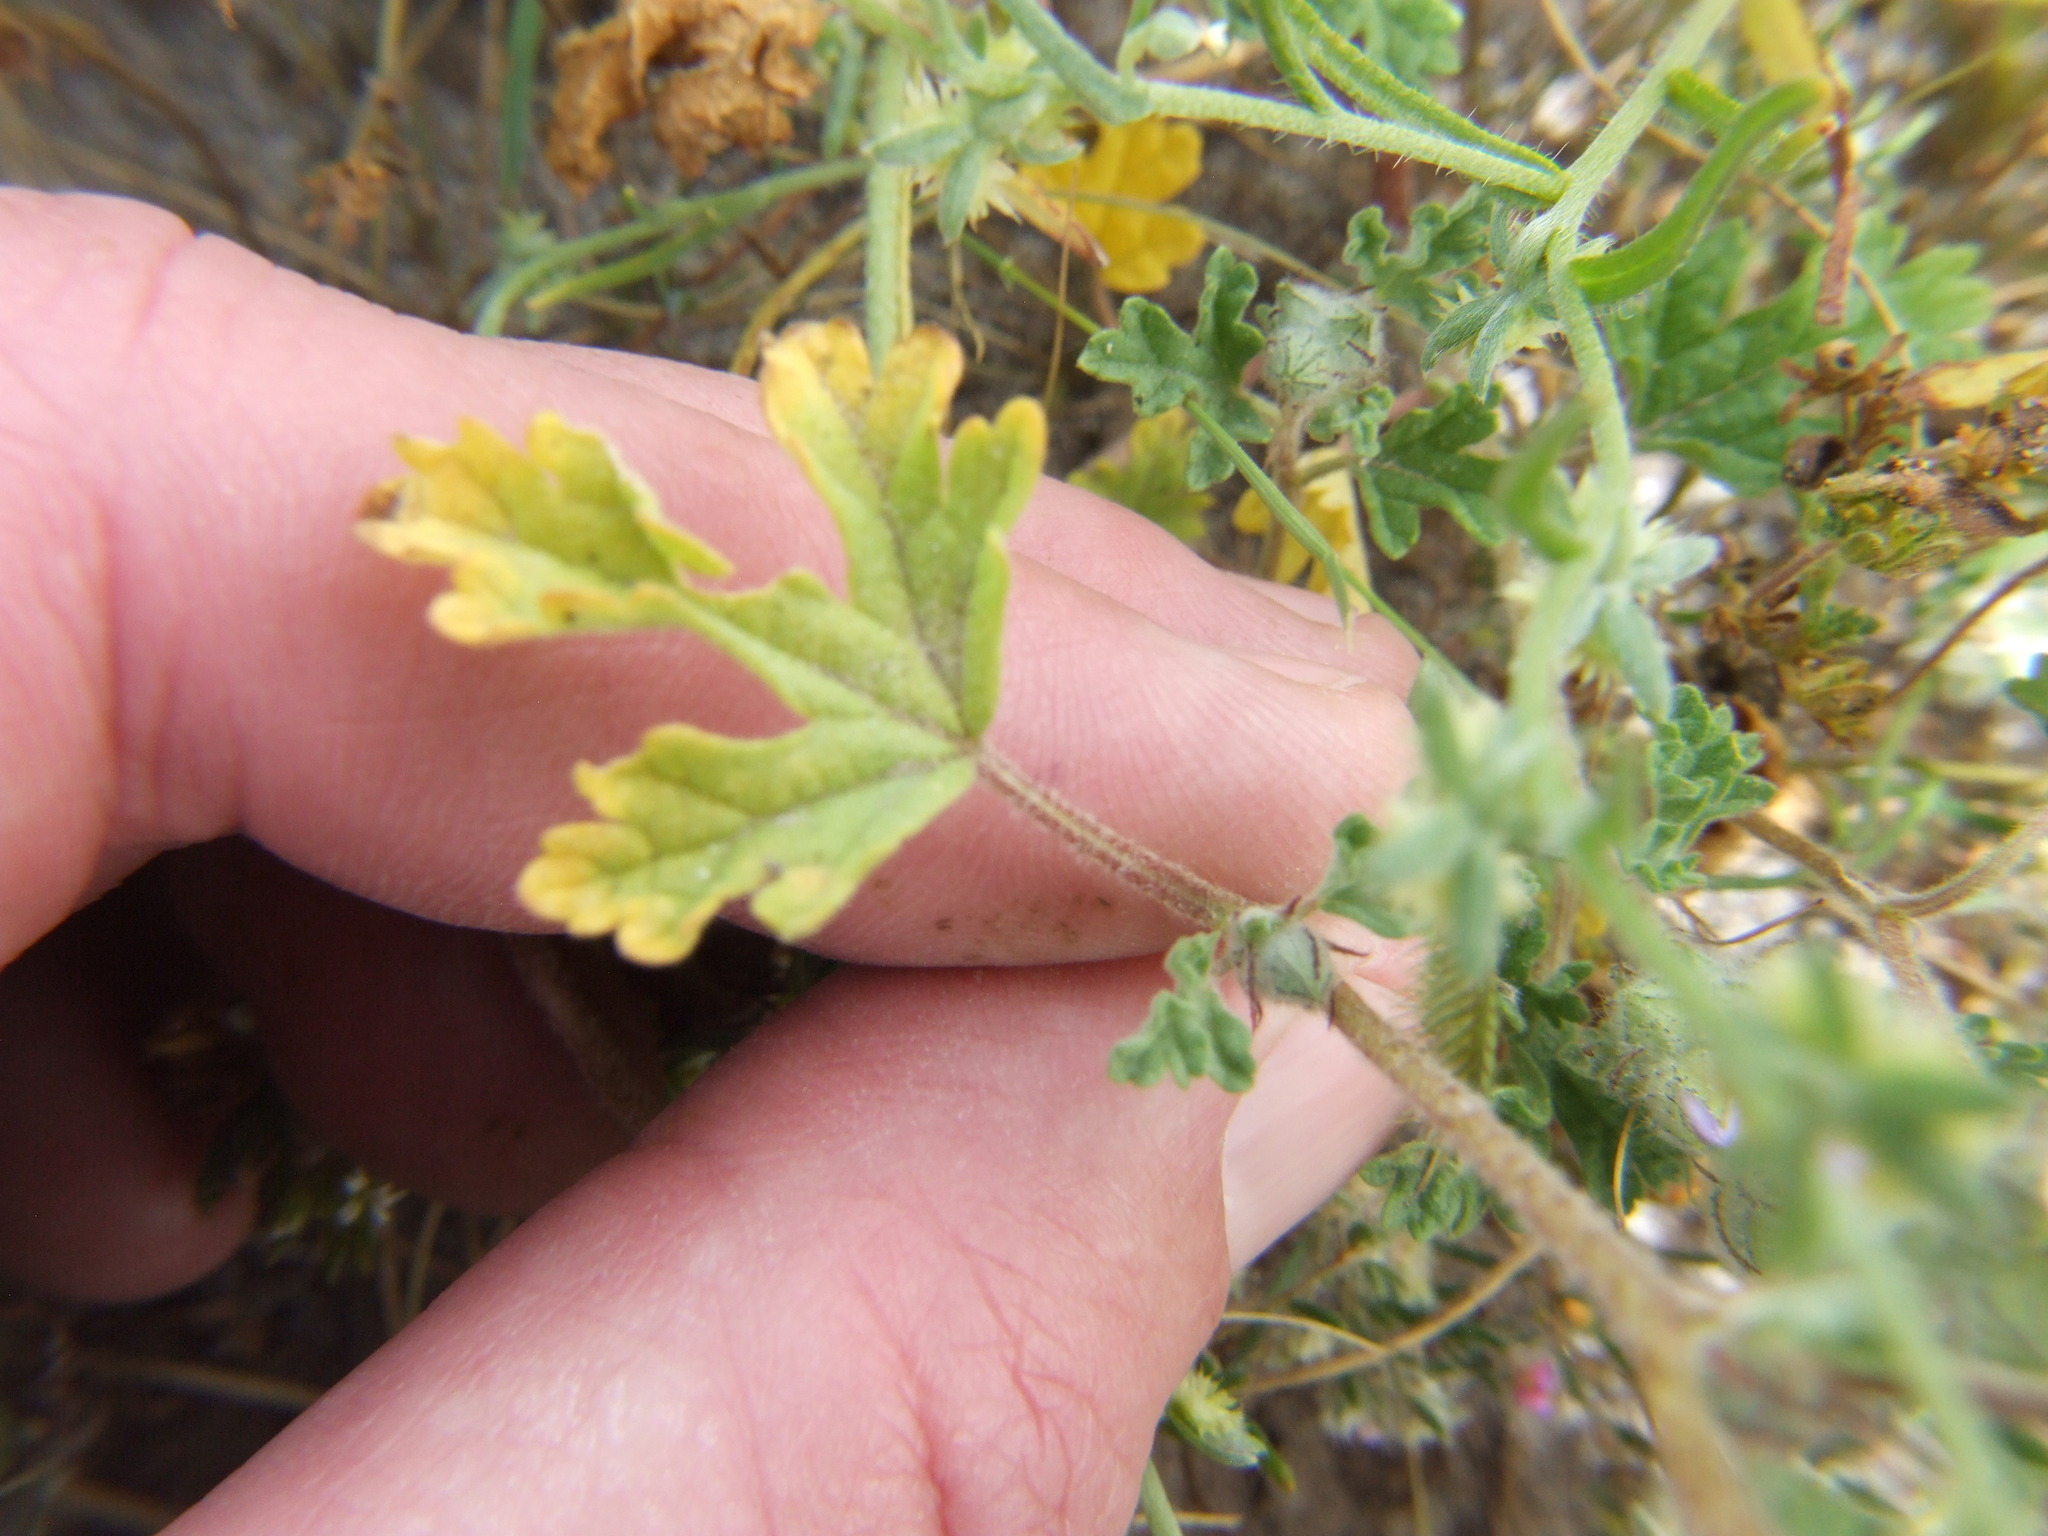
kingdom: Plantae
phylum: Tracheophyta
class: Magnoliopsida
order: Malvales
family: Malvaceae
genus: Tarasa
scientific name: Tarasa tenuis
